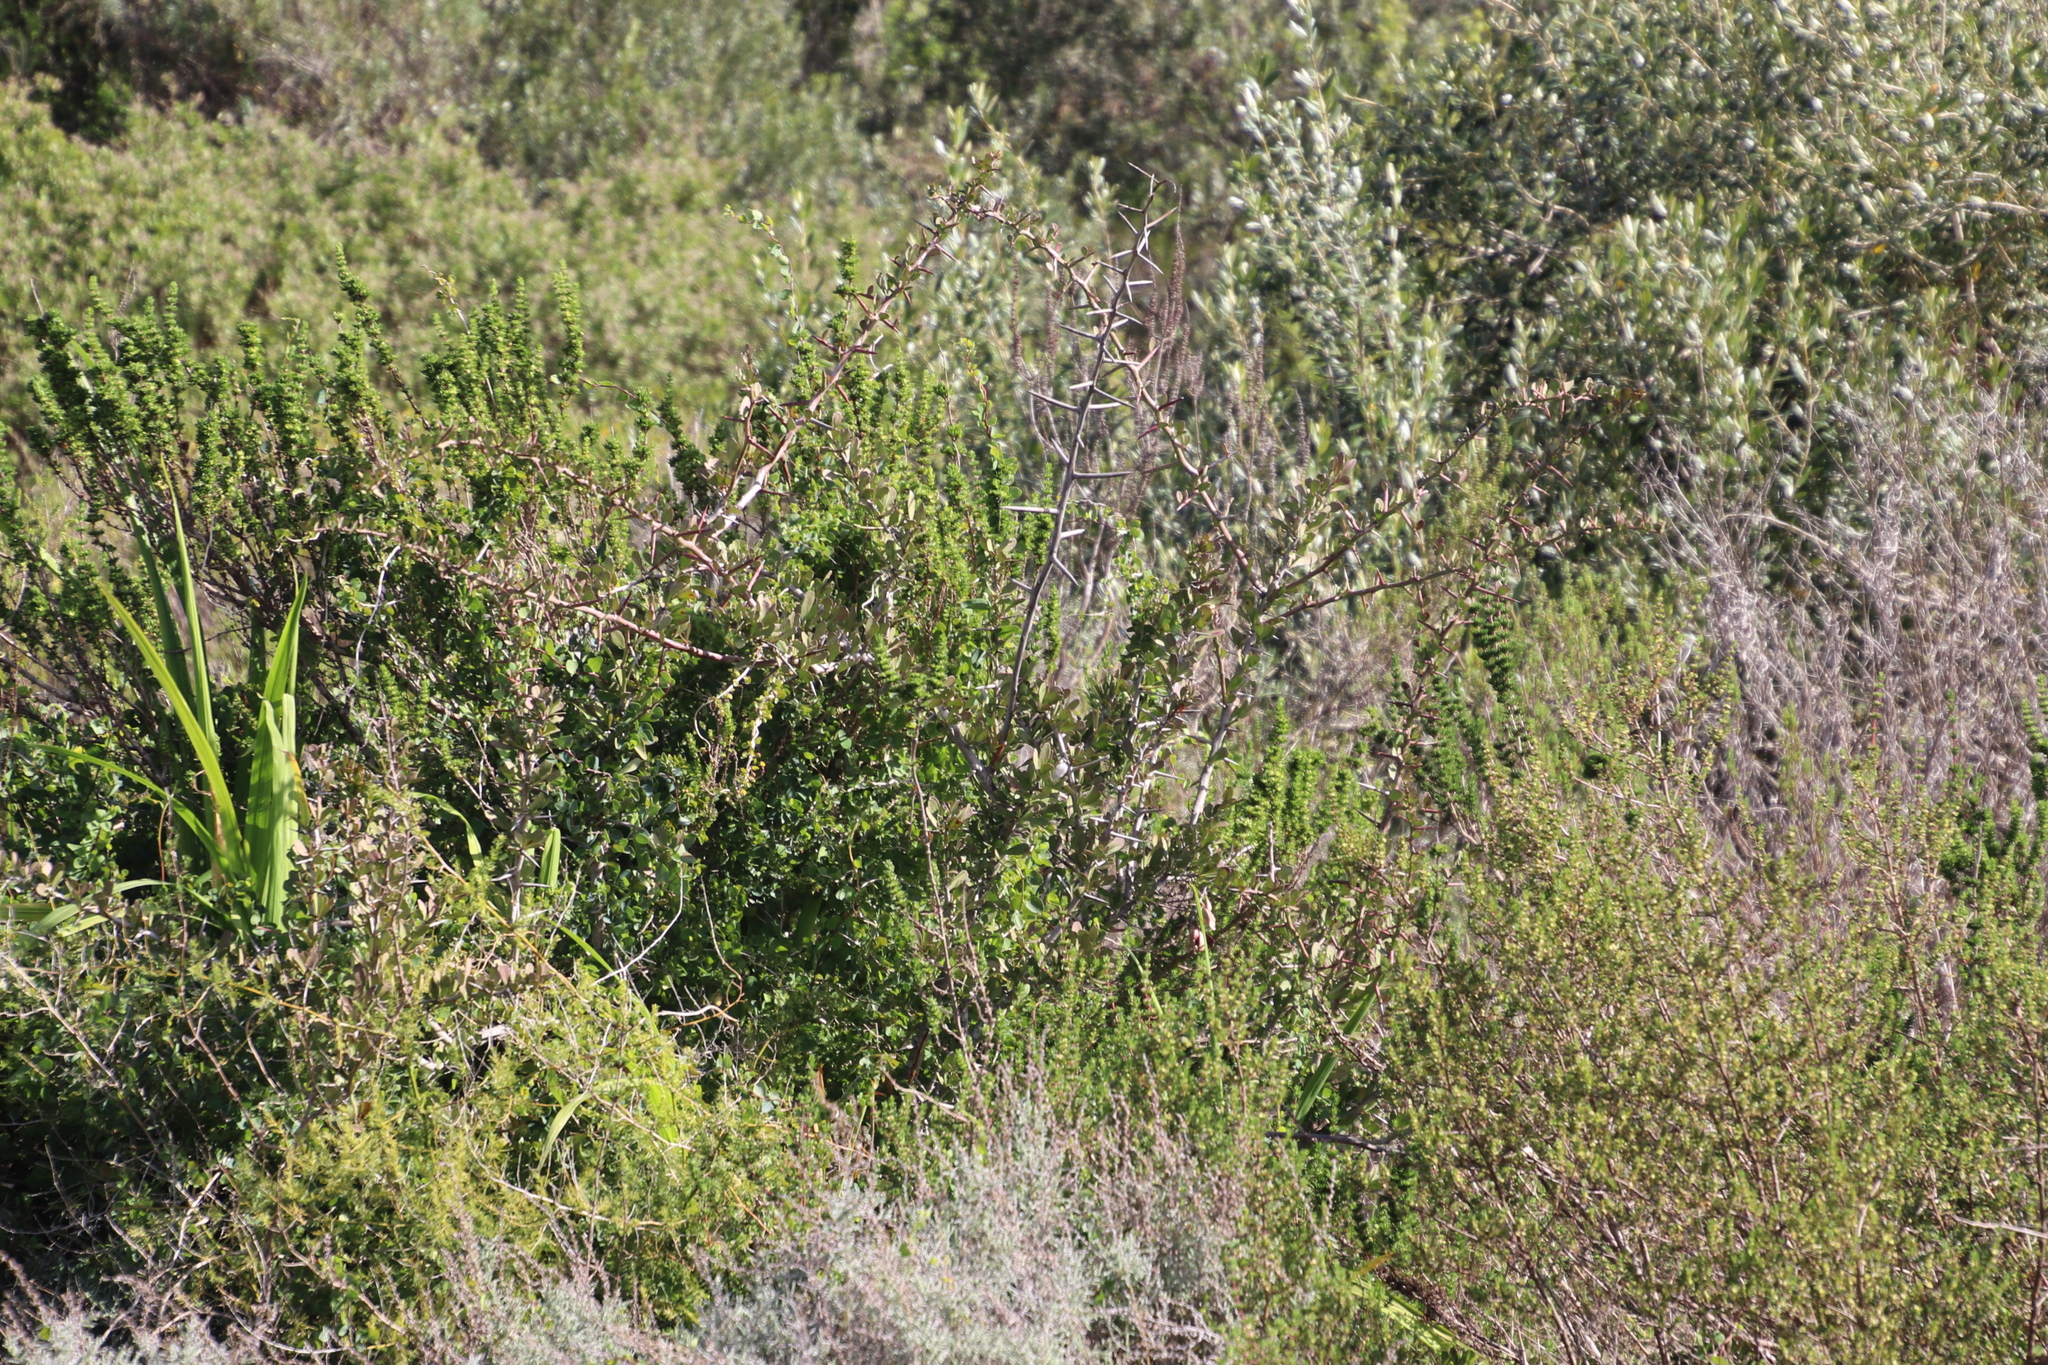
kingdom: Plantae
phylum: Tracheophyta
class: Magnoliopsida
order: Celastrales
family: Celastraceae
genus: Gymnosporia
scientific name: Gymnosporia buxifolia
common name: Common spike-thorn
